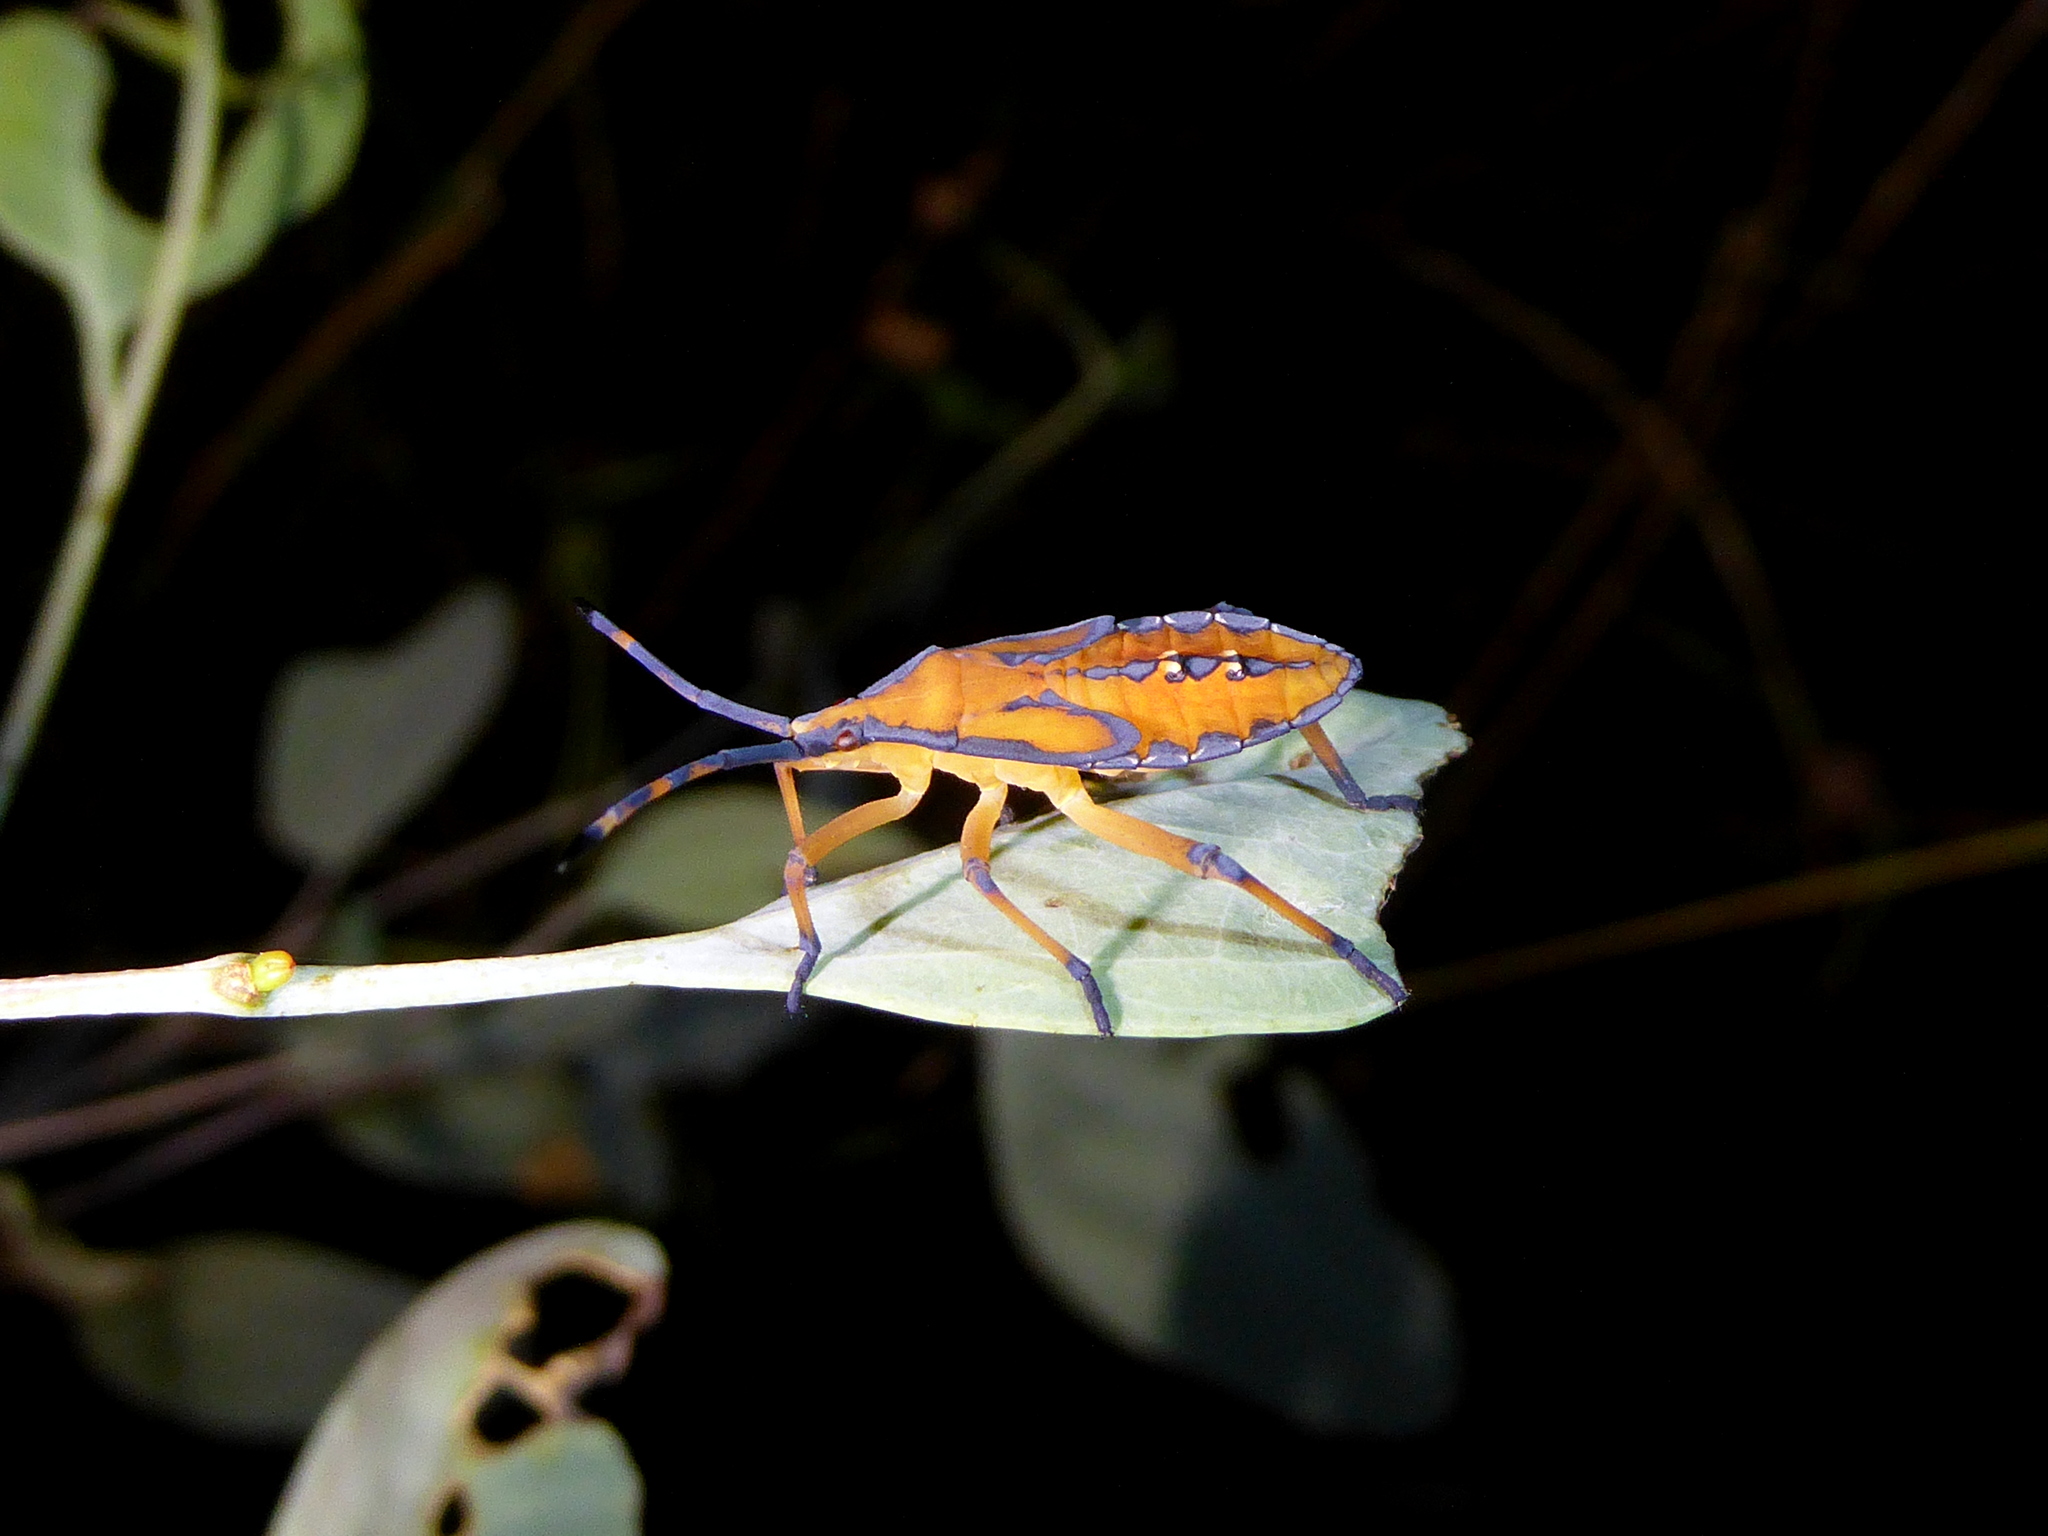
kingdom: Animalia
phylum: Arthropoda
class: Insecta
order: Hemiptera
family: Coreidae
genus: Amorbus
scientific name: Amorbus rubiginosus
